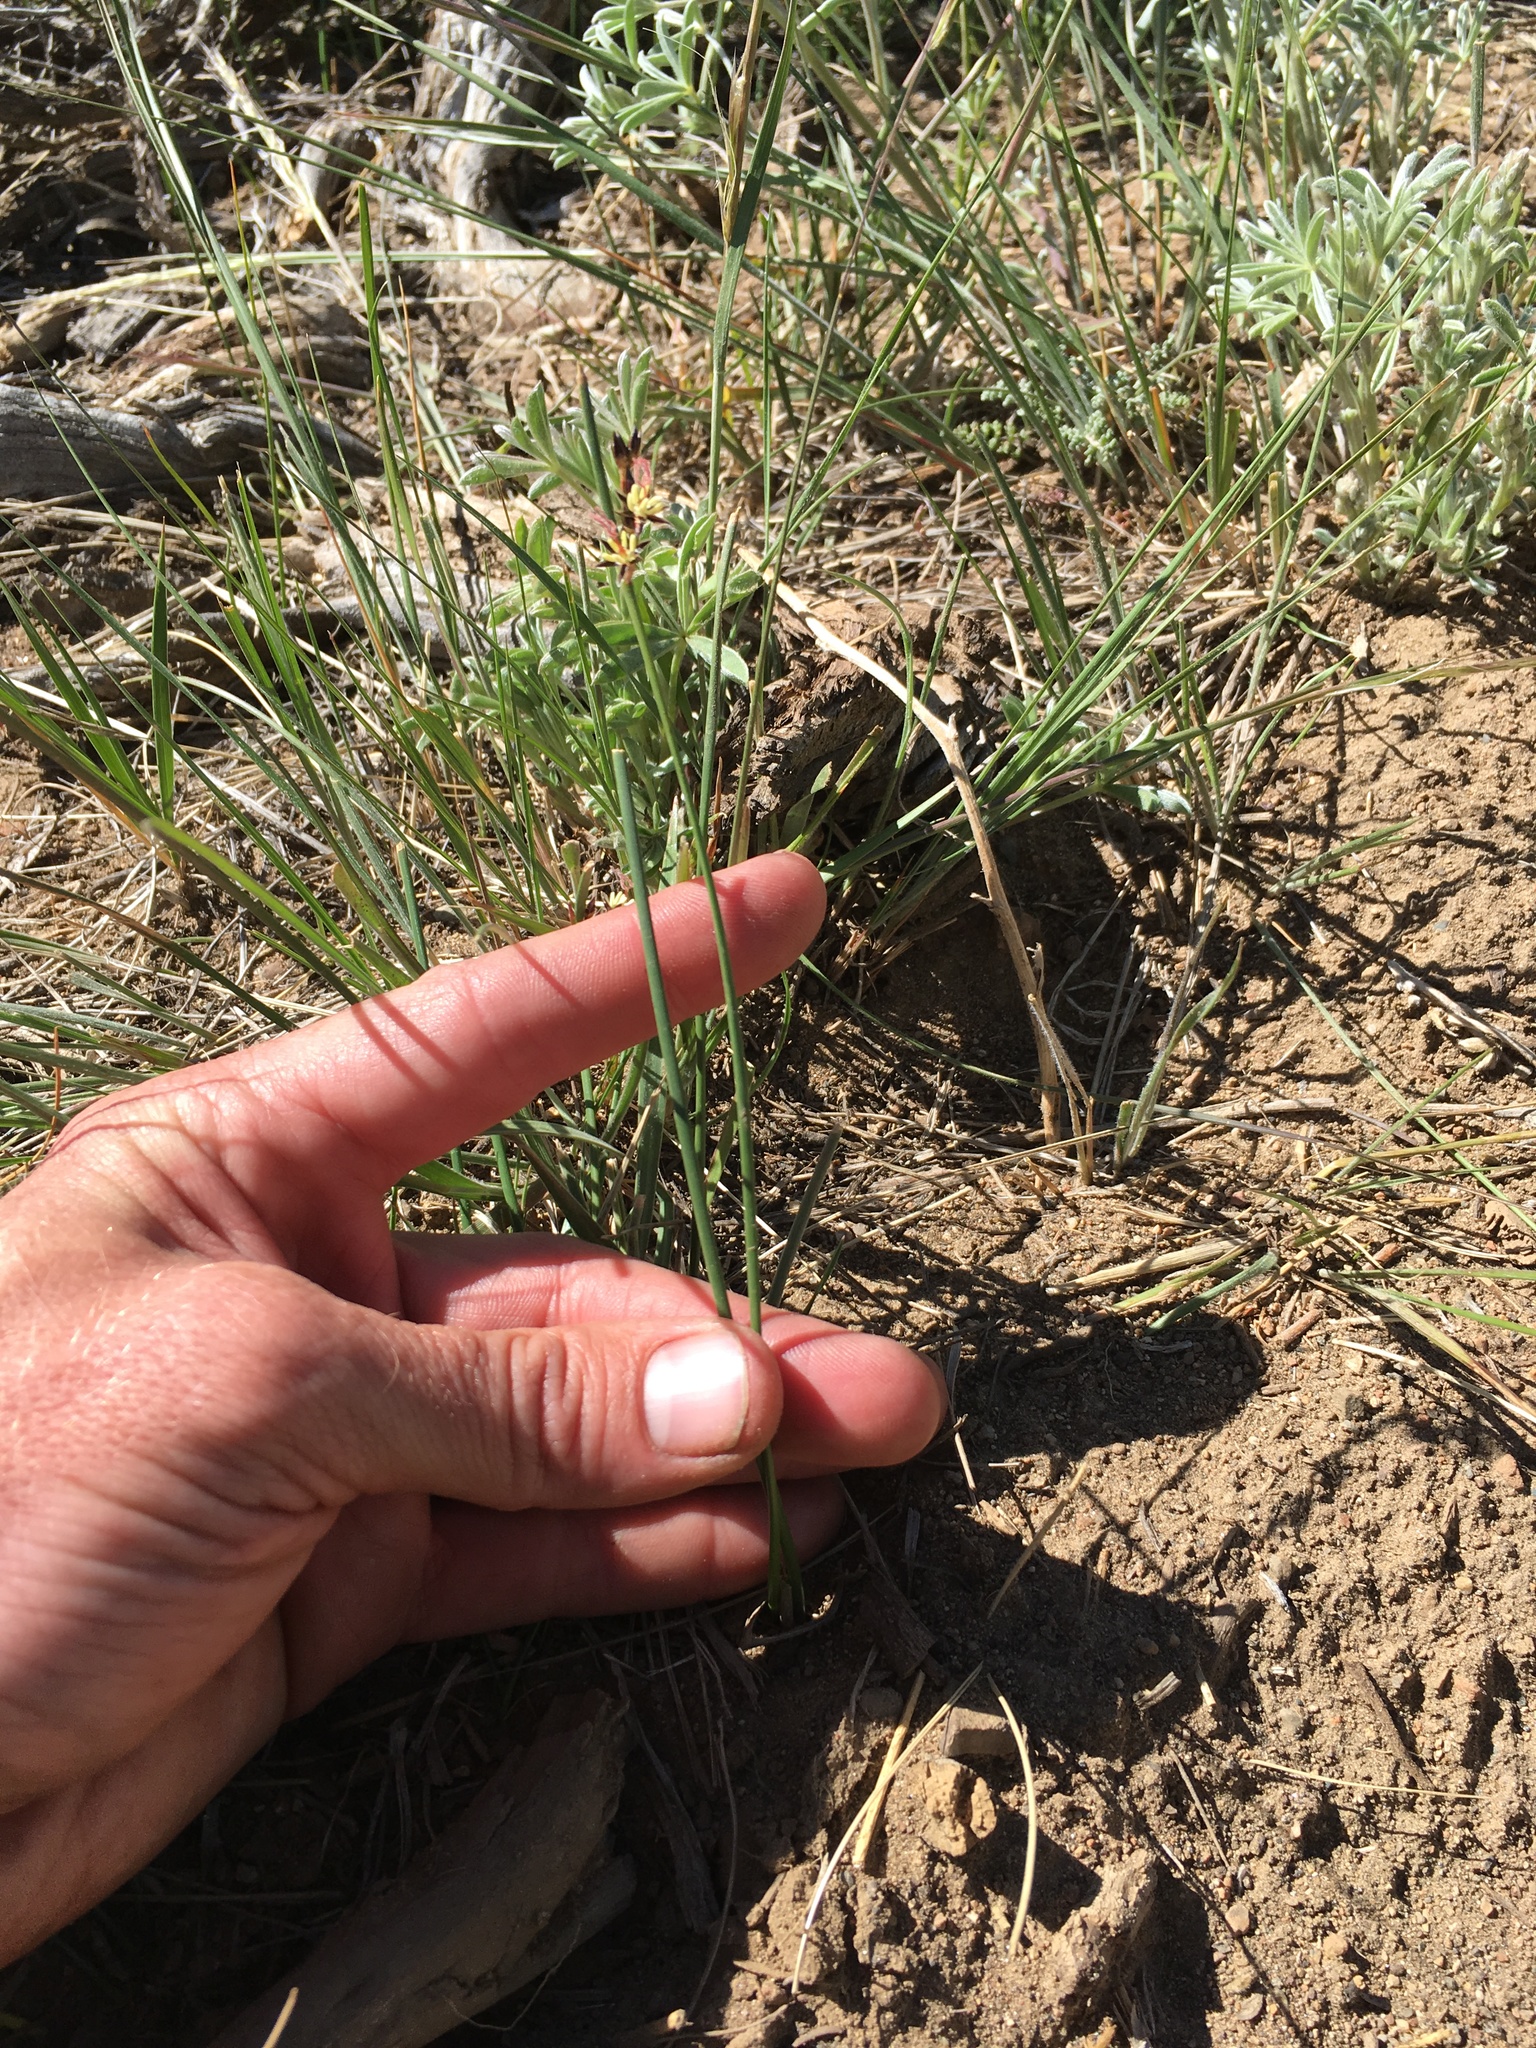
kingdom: Plantae
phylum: Tracheophyta
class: Liliopsida
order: Poales
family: Juncaceae
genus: Juncus
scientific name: Juncus balticus
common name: Baltic rush
